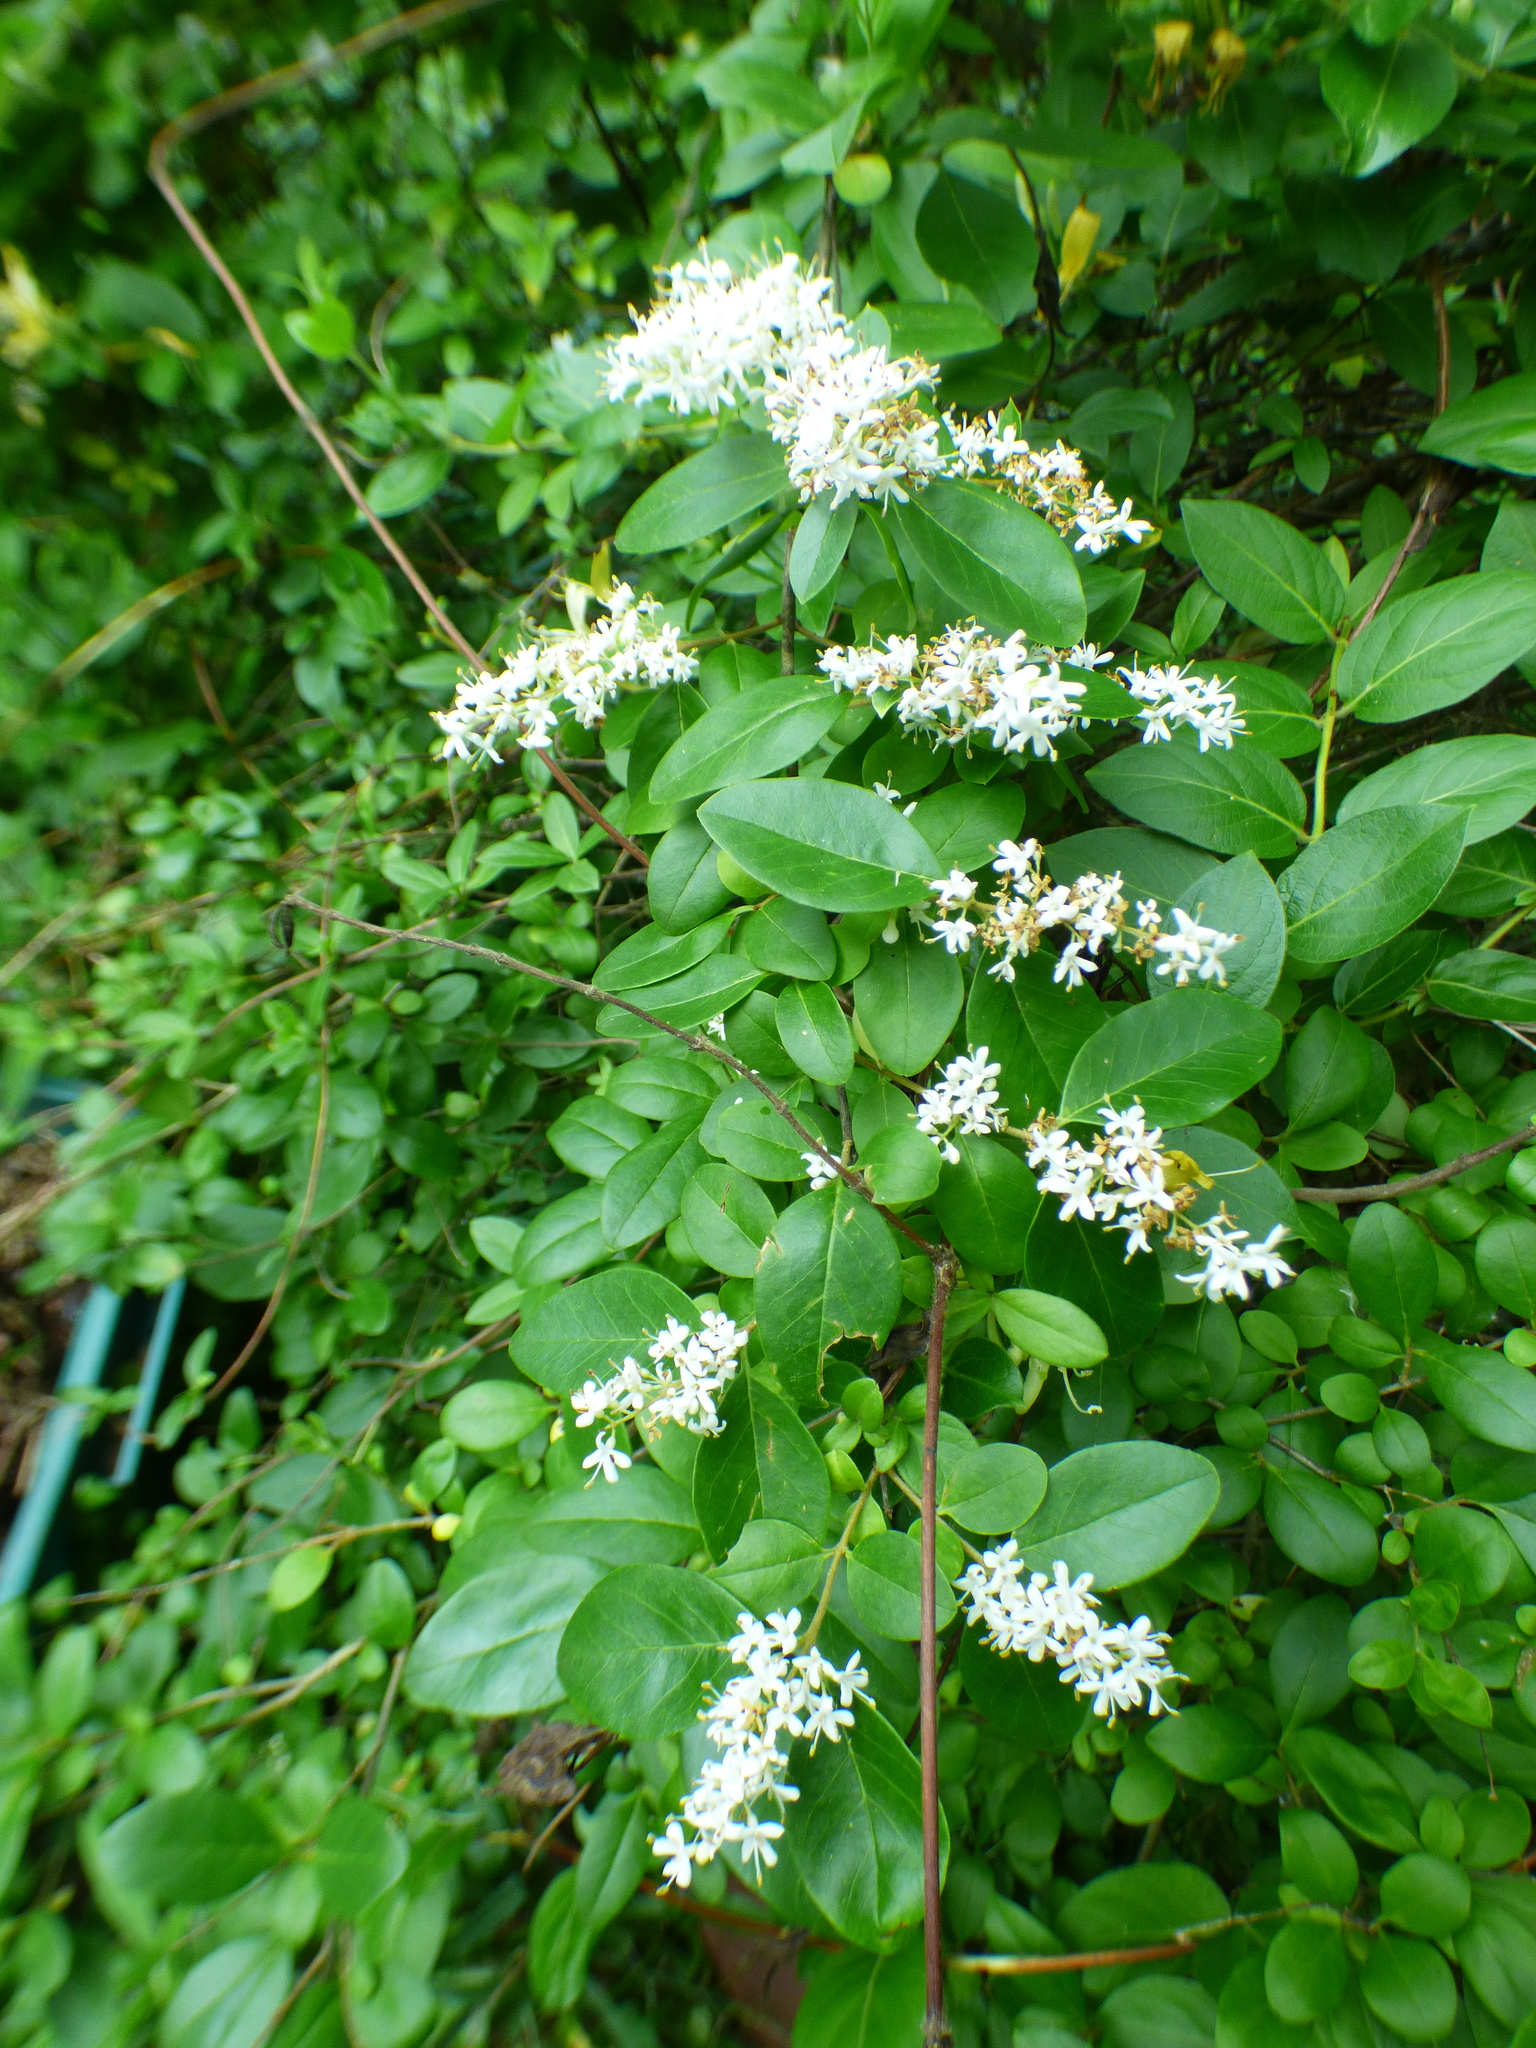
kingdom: Plantae
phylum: Tracheophyta
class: Magnoliopsida
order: Lamiales
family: Oleaceae
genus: Ligustrum
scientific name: Ligustrum sinense
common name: Chinese privet
